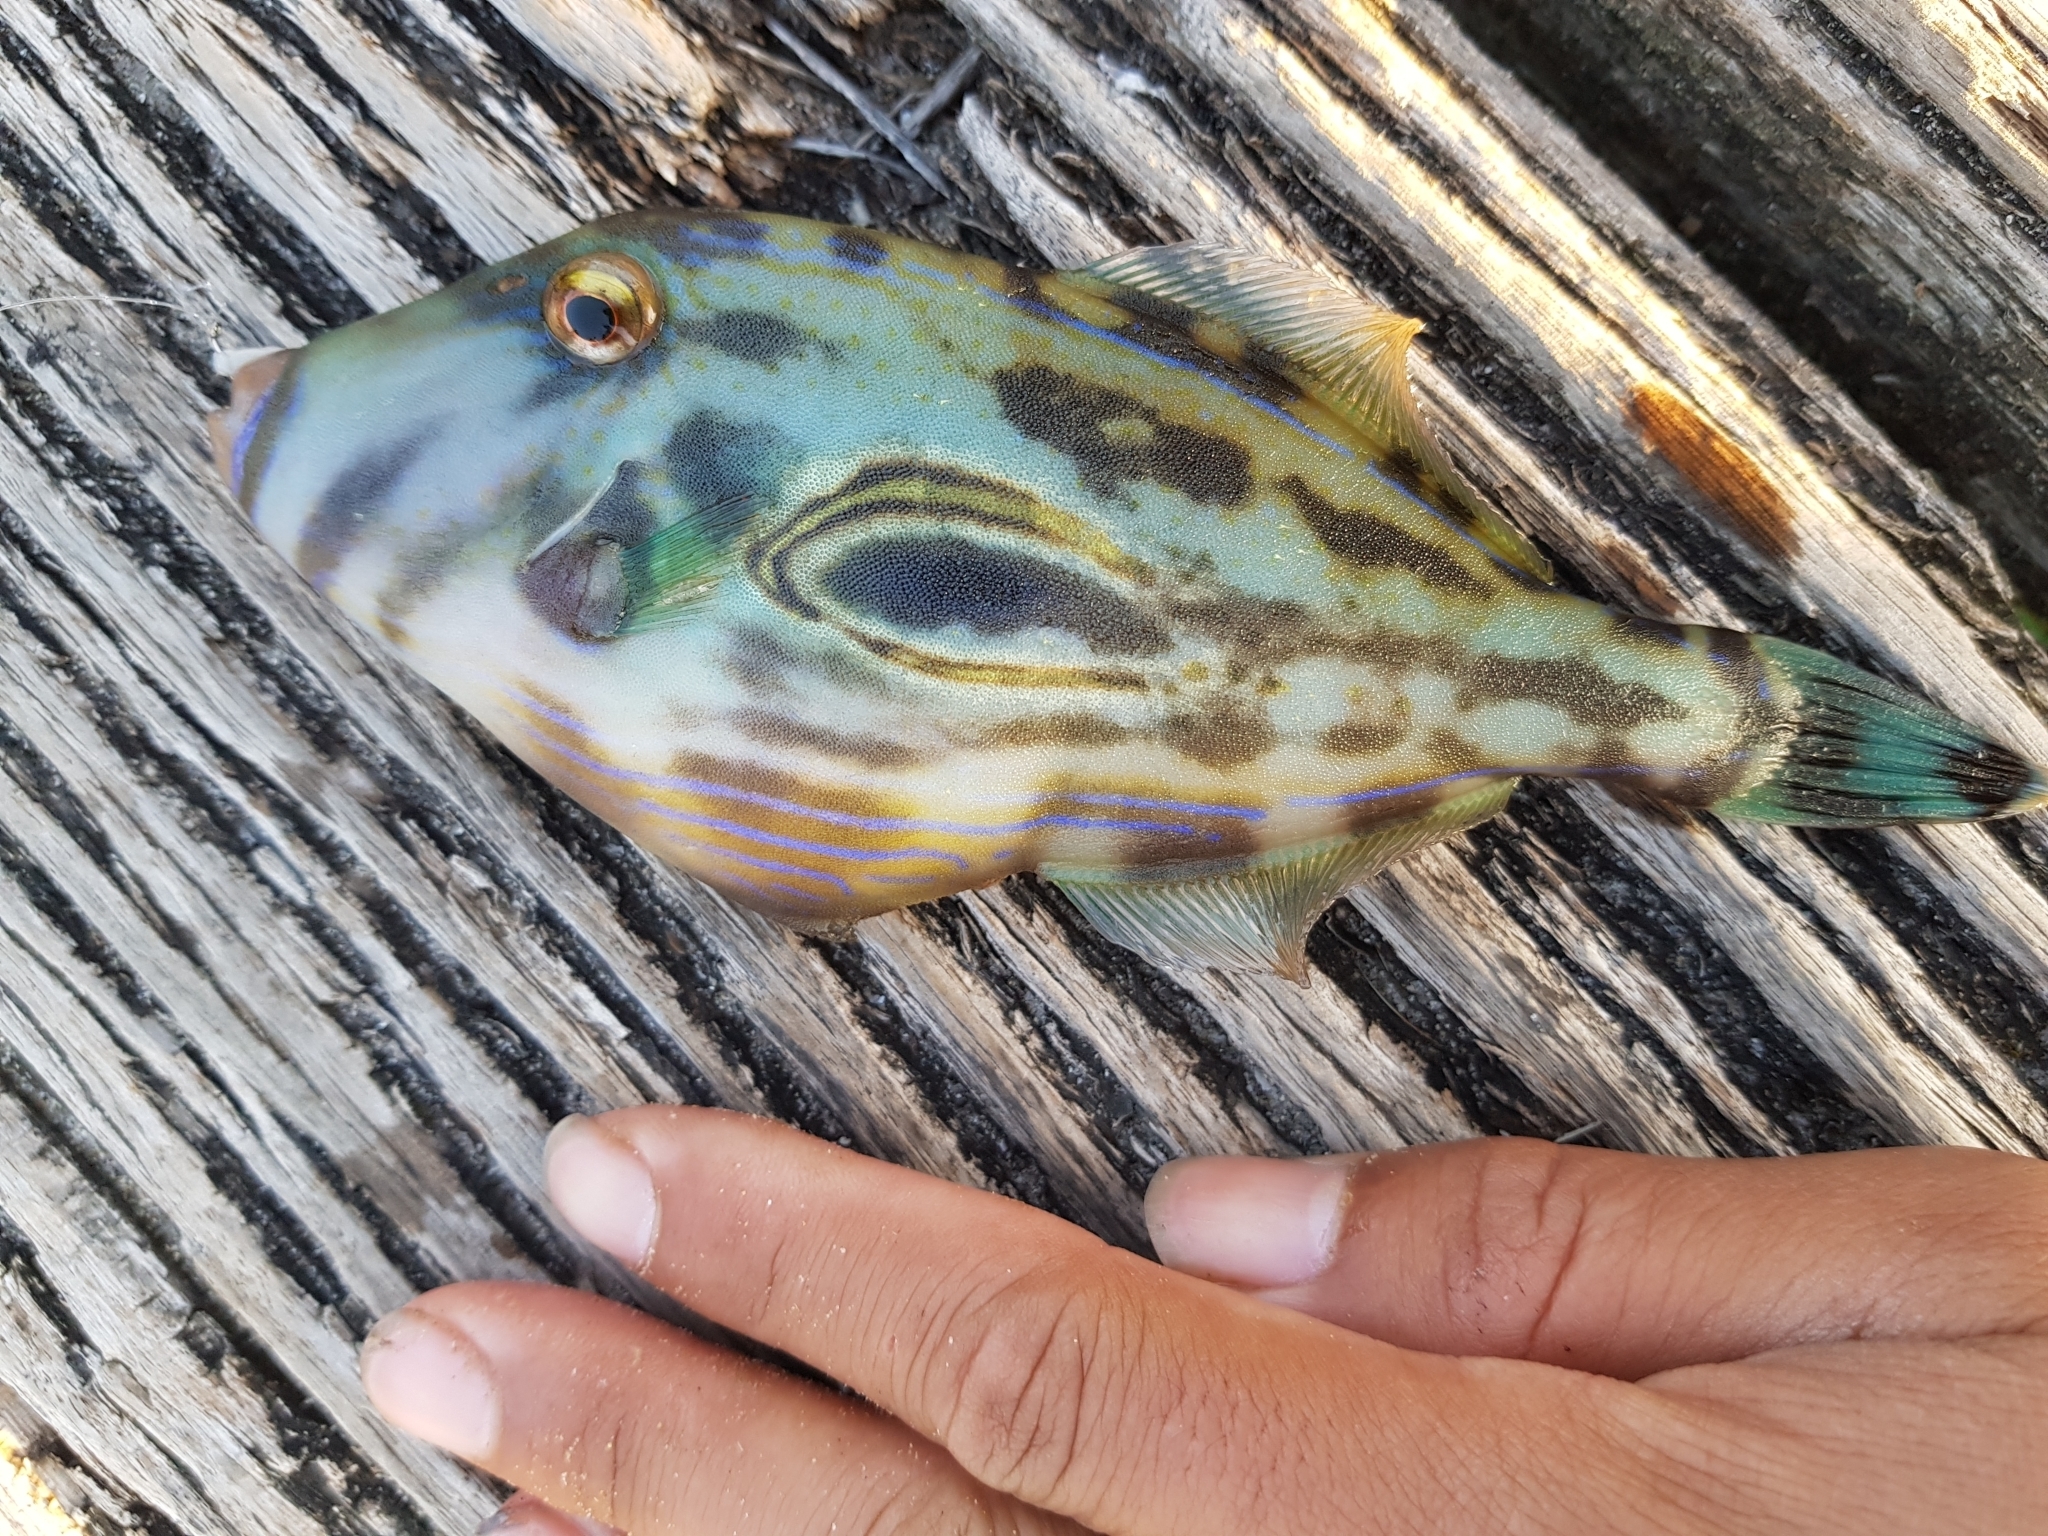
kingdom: Animalia
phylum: Chordata
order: Tetraodontiformes
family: Monacanthidae
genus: Meuschenia
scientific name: Meuschenia hippocrepis
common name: Horse-shoe leatherjacket
